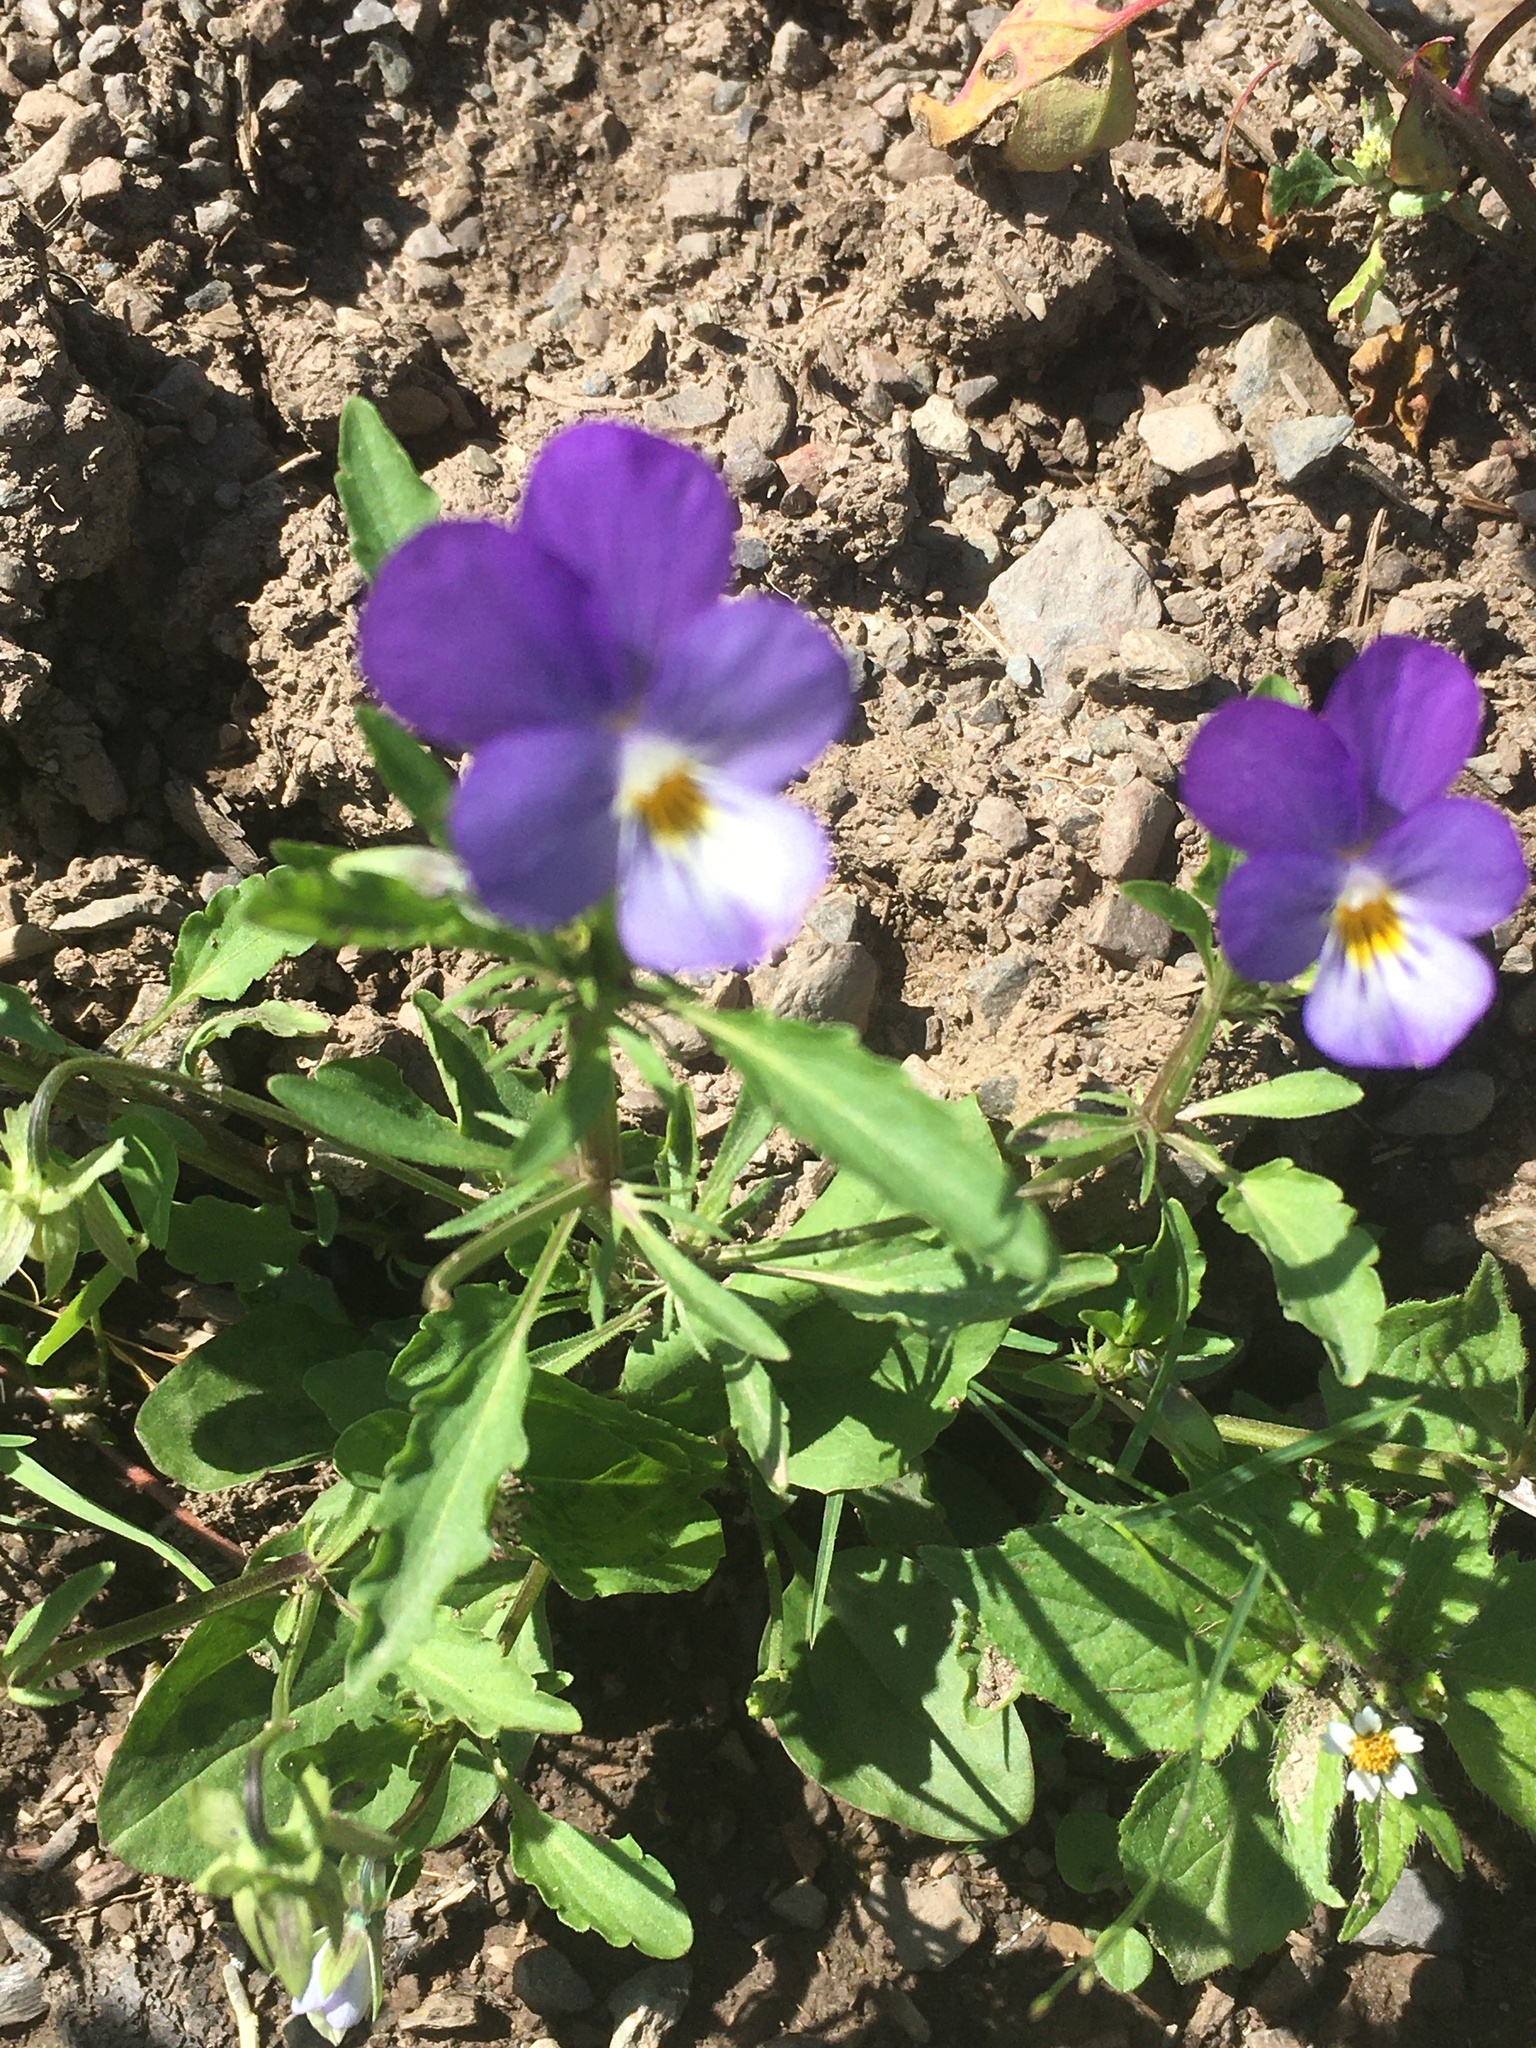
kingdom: Plantae
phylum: Tracheophyta
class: Magnoliopsida
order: Malpighiales
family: Violaceae
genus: Viola
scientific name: Viola tricolor
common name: Pansy
